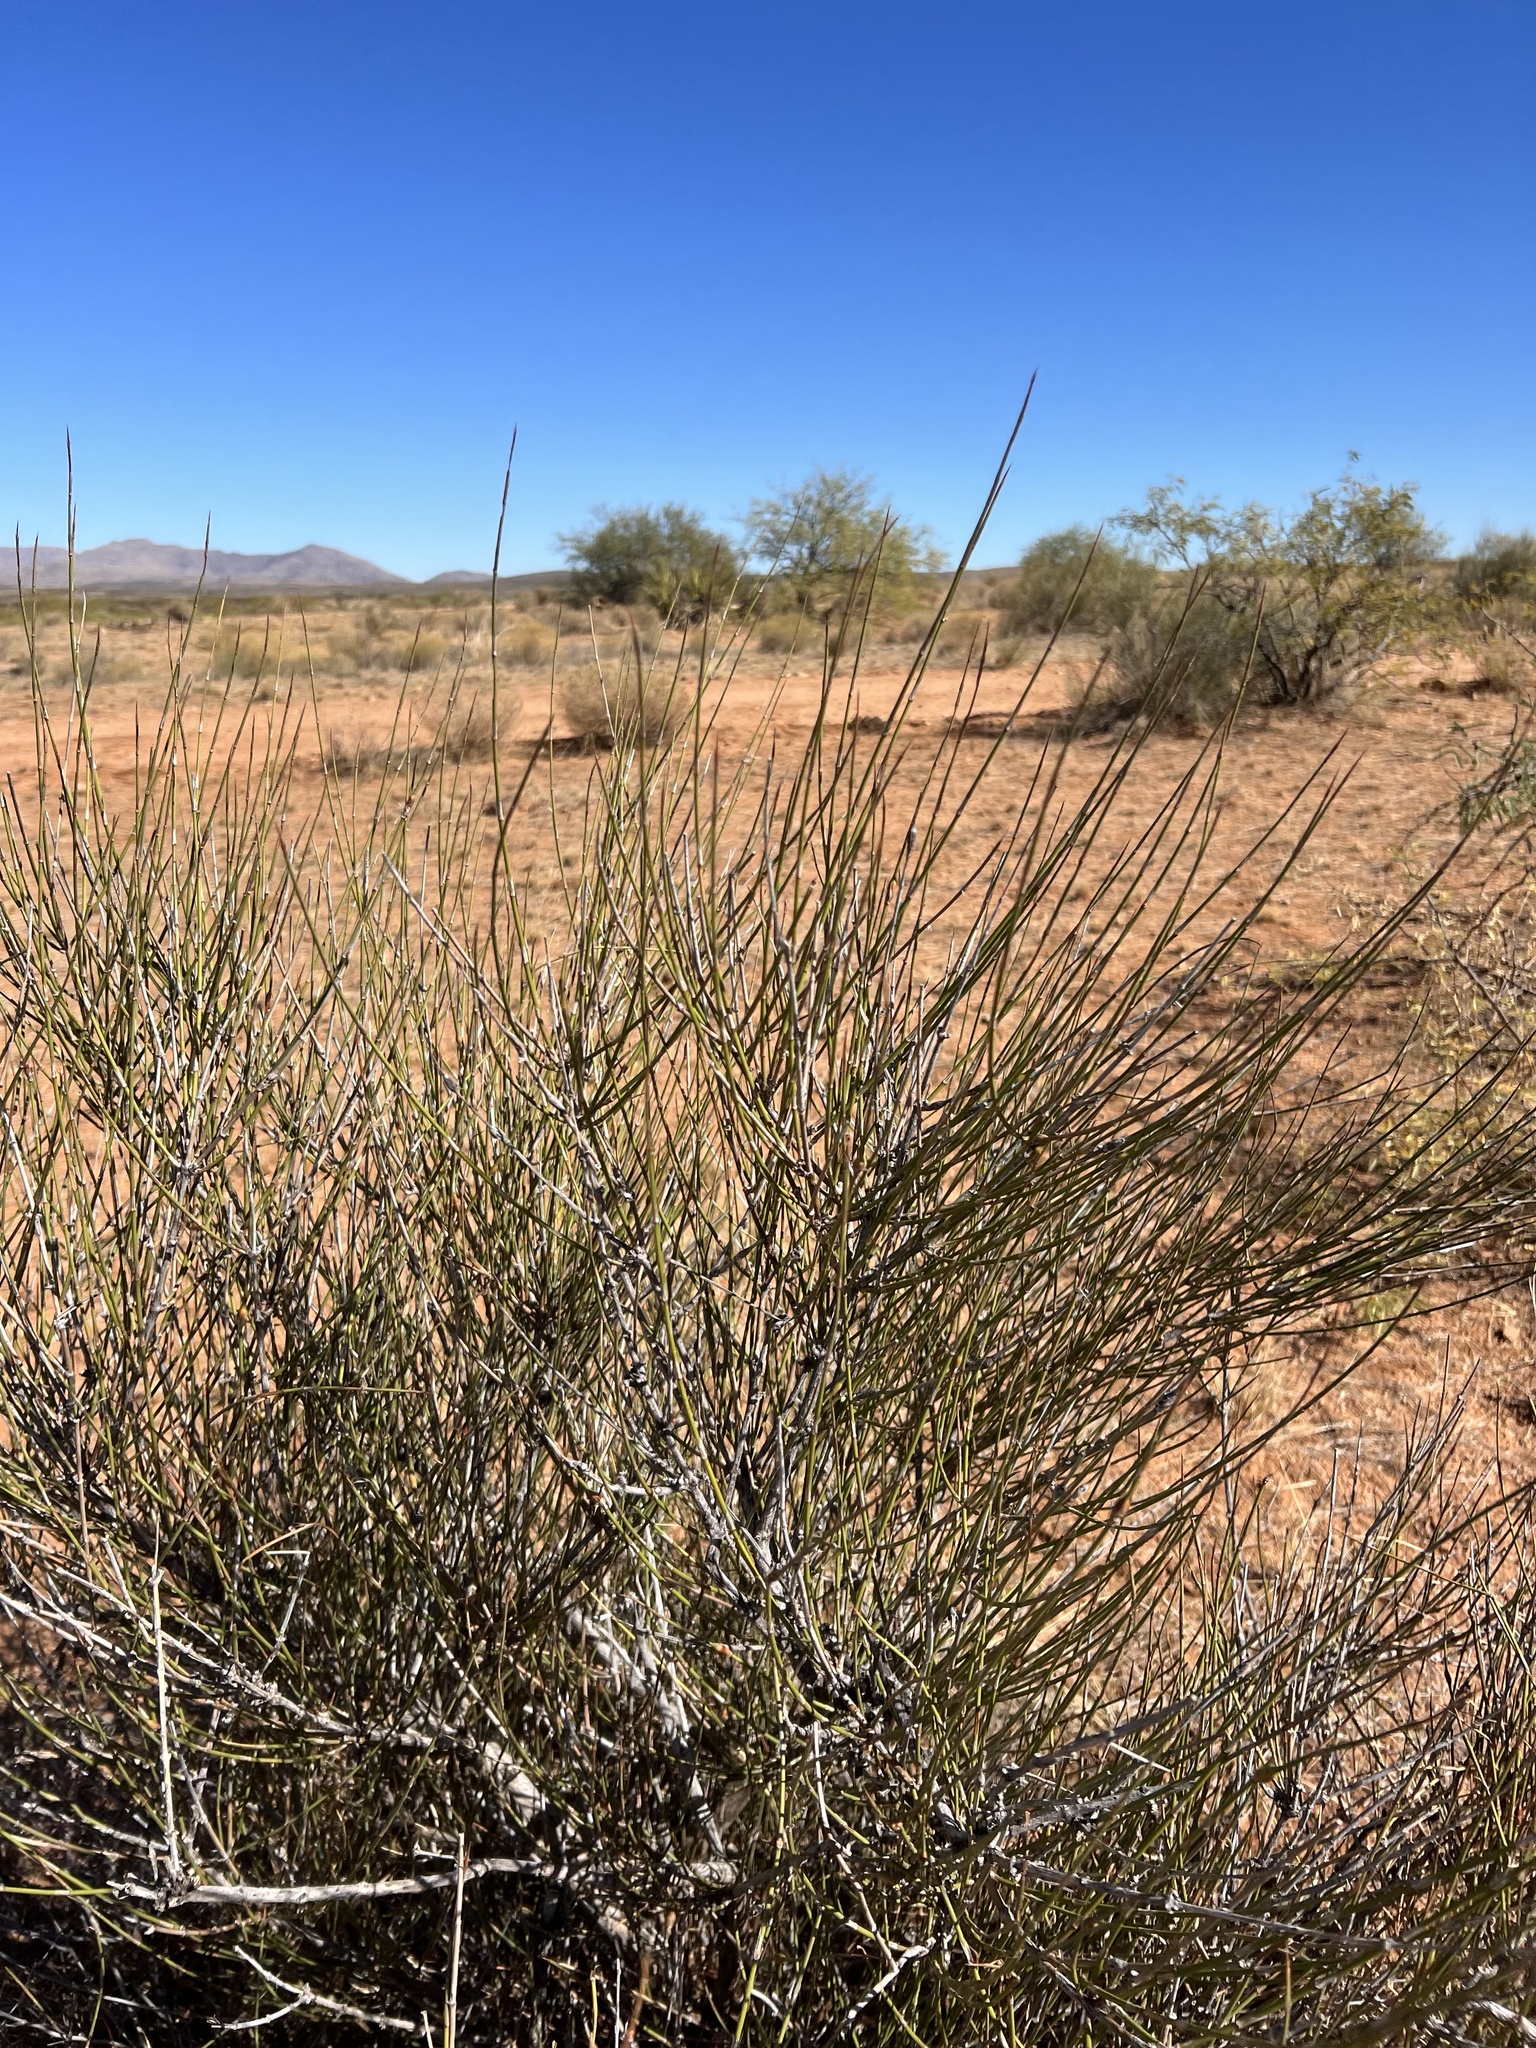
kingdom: Plantae
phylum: Tracheophyta
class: Gnetopsida
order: Ephedrales
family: Ephedraceae
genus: Ephedra
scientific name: Ephedra trifurca
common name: Mexican-tea
